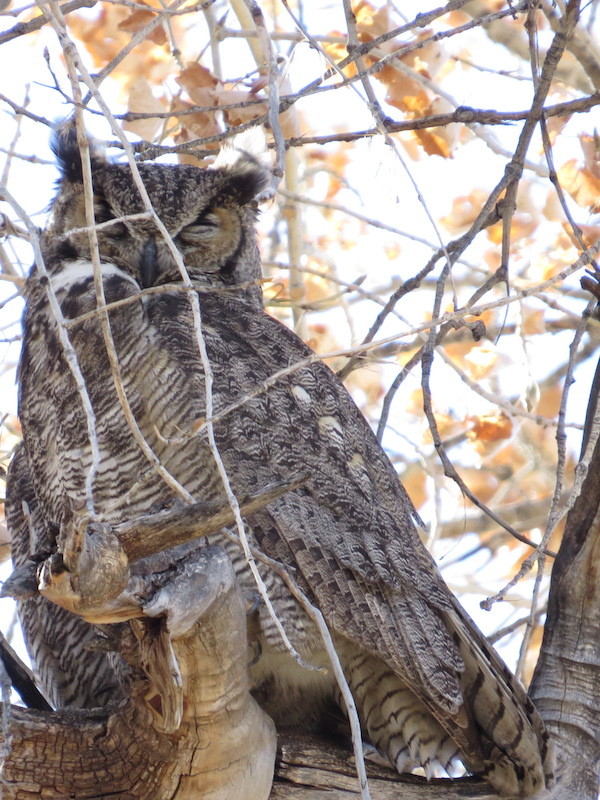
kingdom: Animalia
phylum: Chordata
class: Aves
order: Strigiformes
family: Strigidae
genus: Bubo
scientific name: Bubo virginianus
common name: Great horned owl
